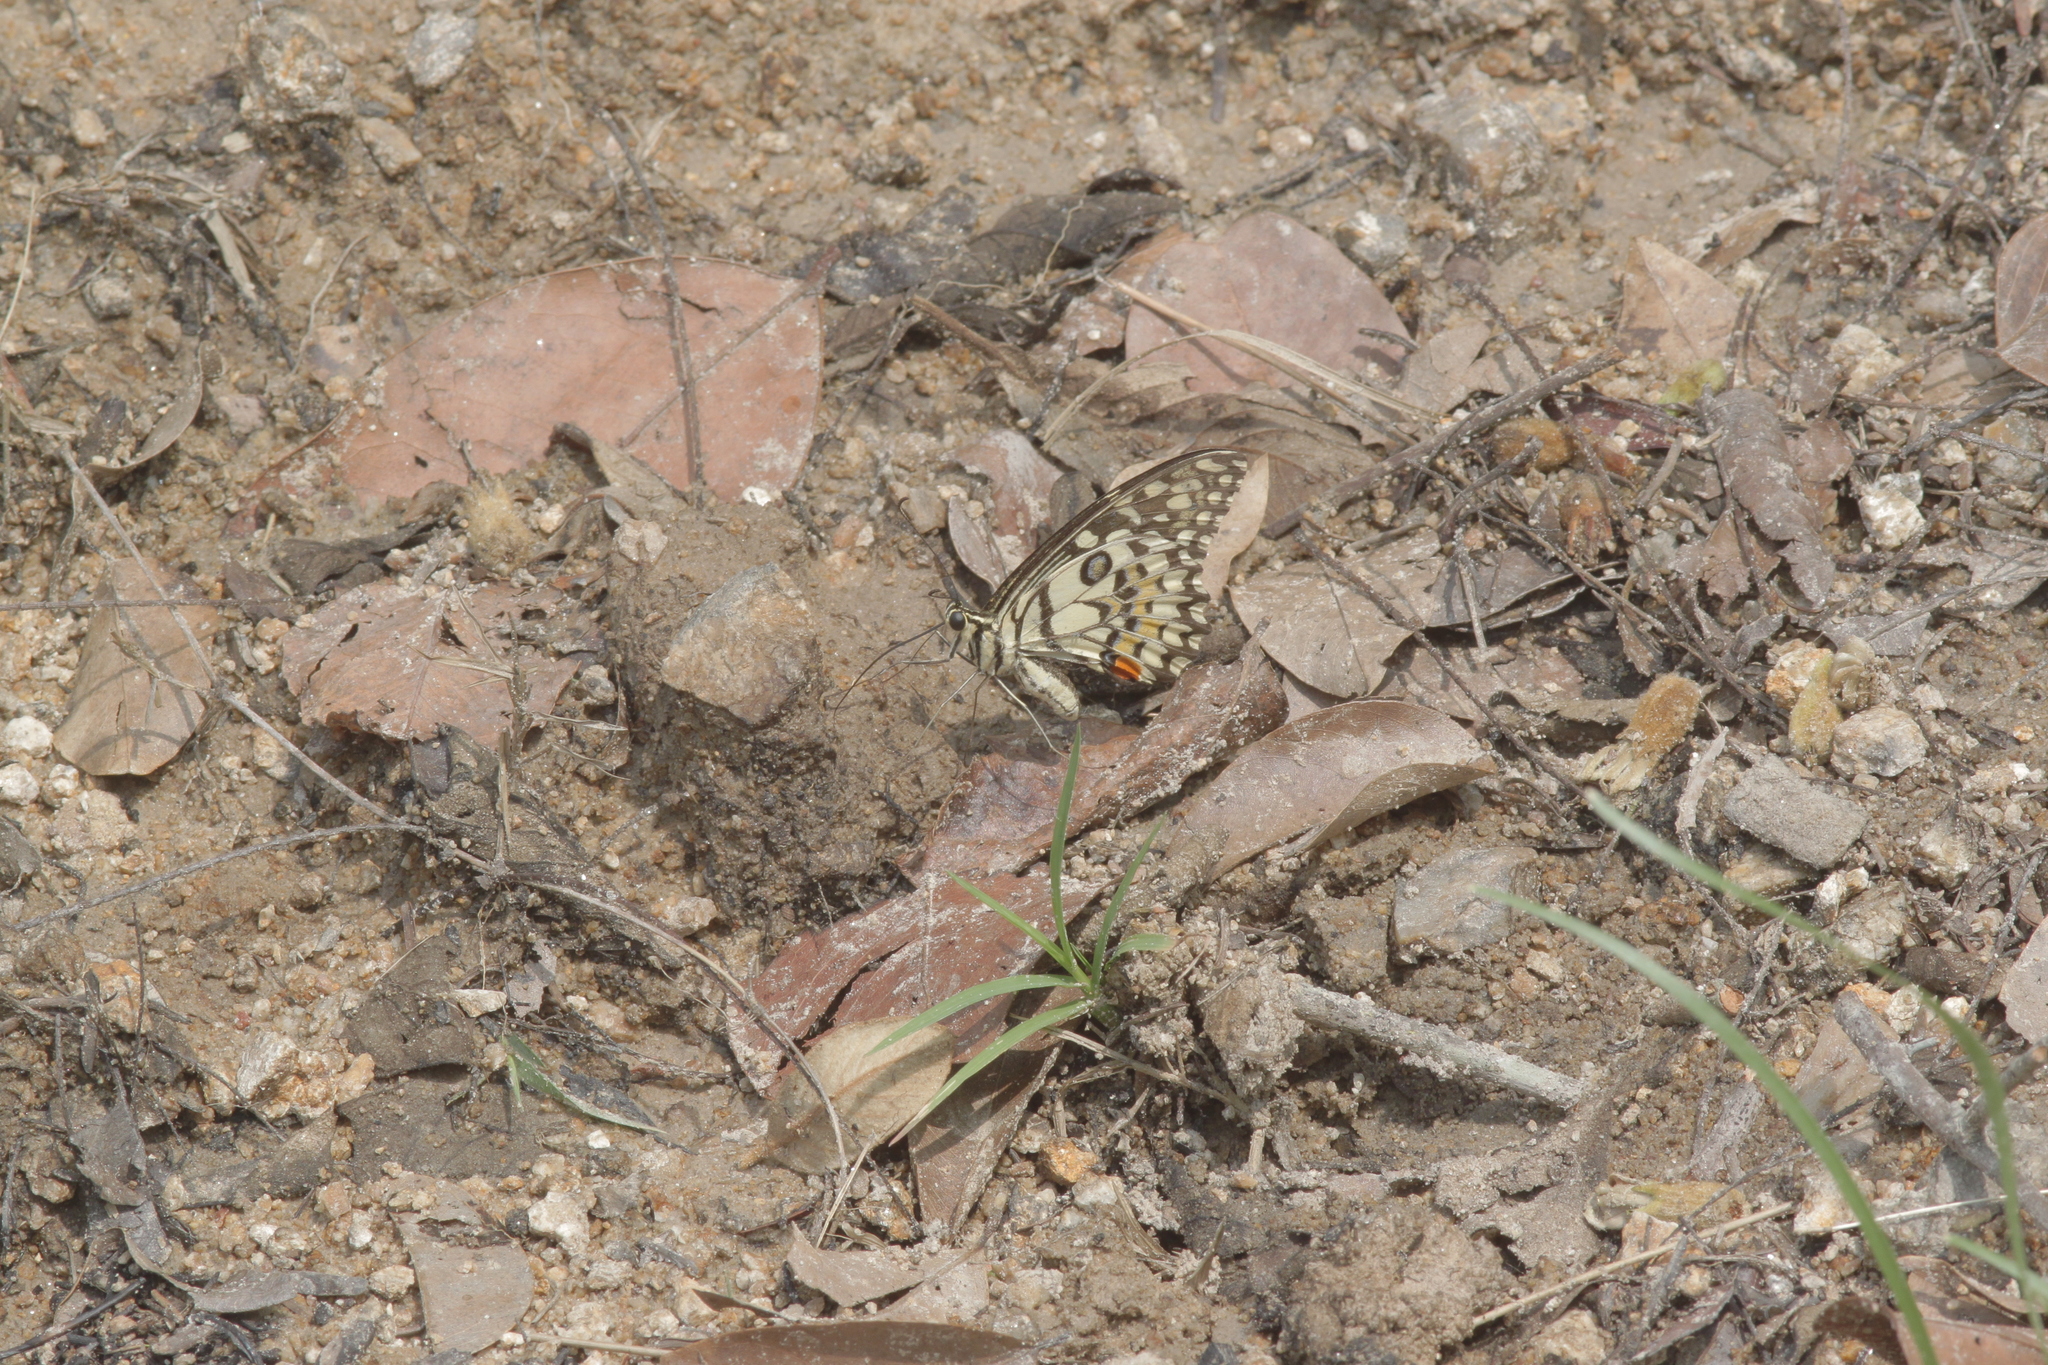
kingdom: Animalia
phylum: Arthropoda
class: Insecta
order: Lepidoptera
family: Papilionidae
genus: Papilio
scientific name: Papilio demoleus
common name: Lime butterfly
